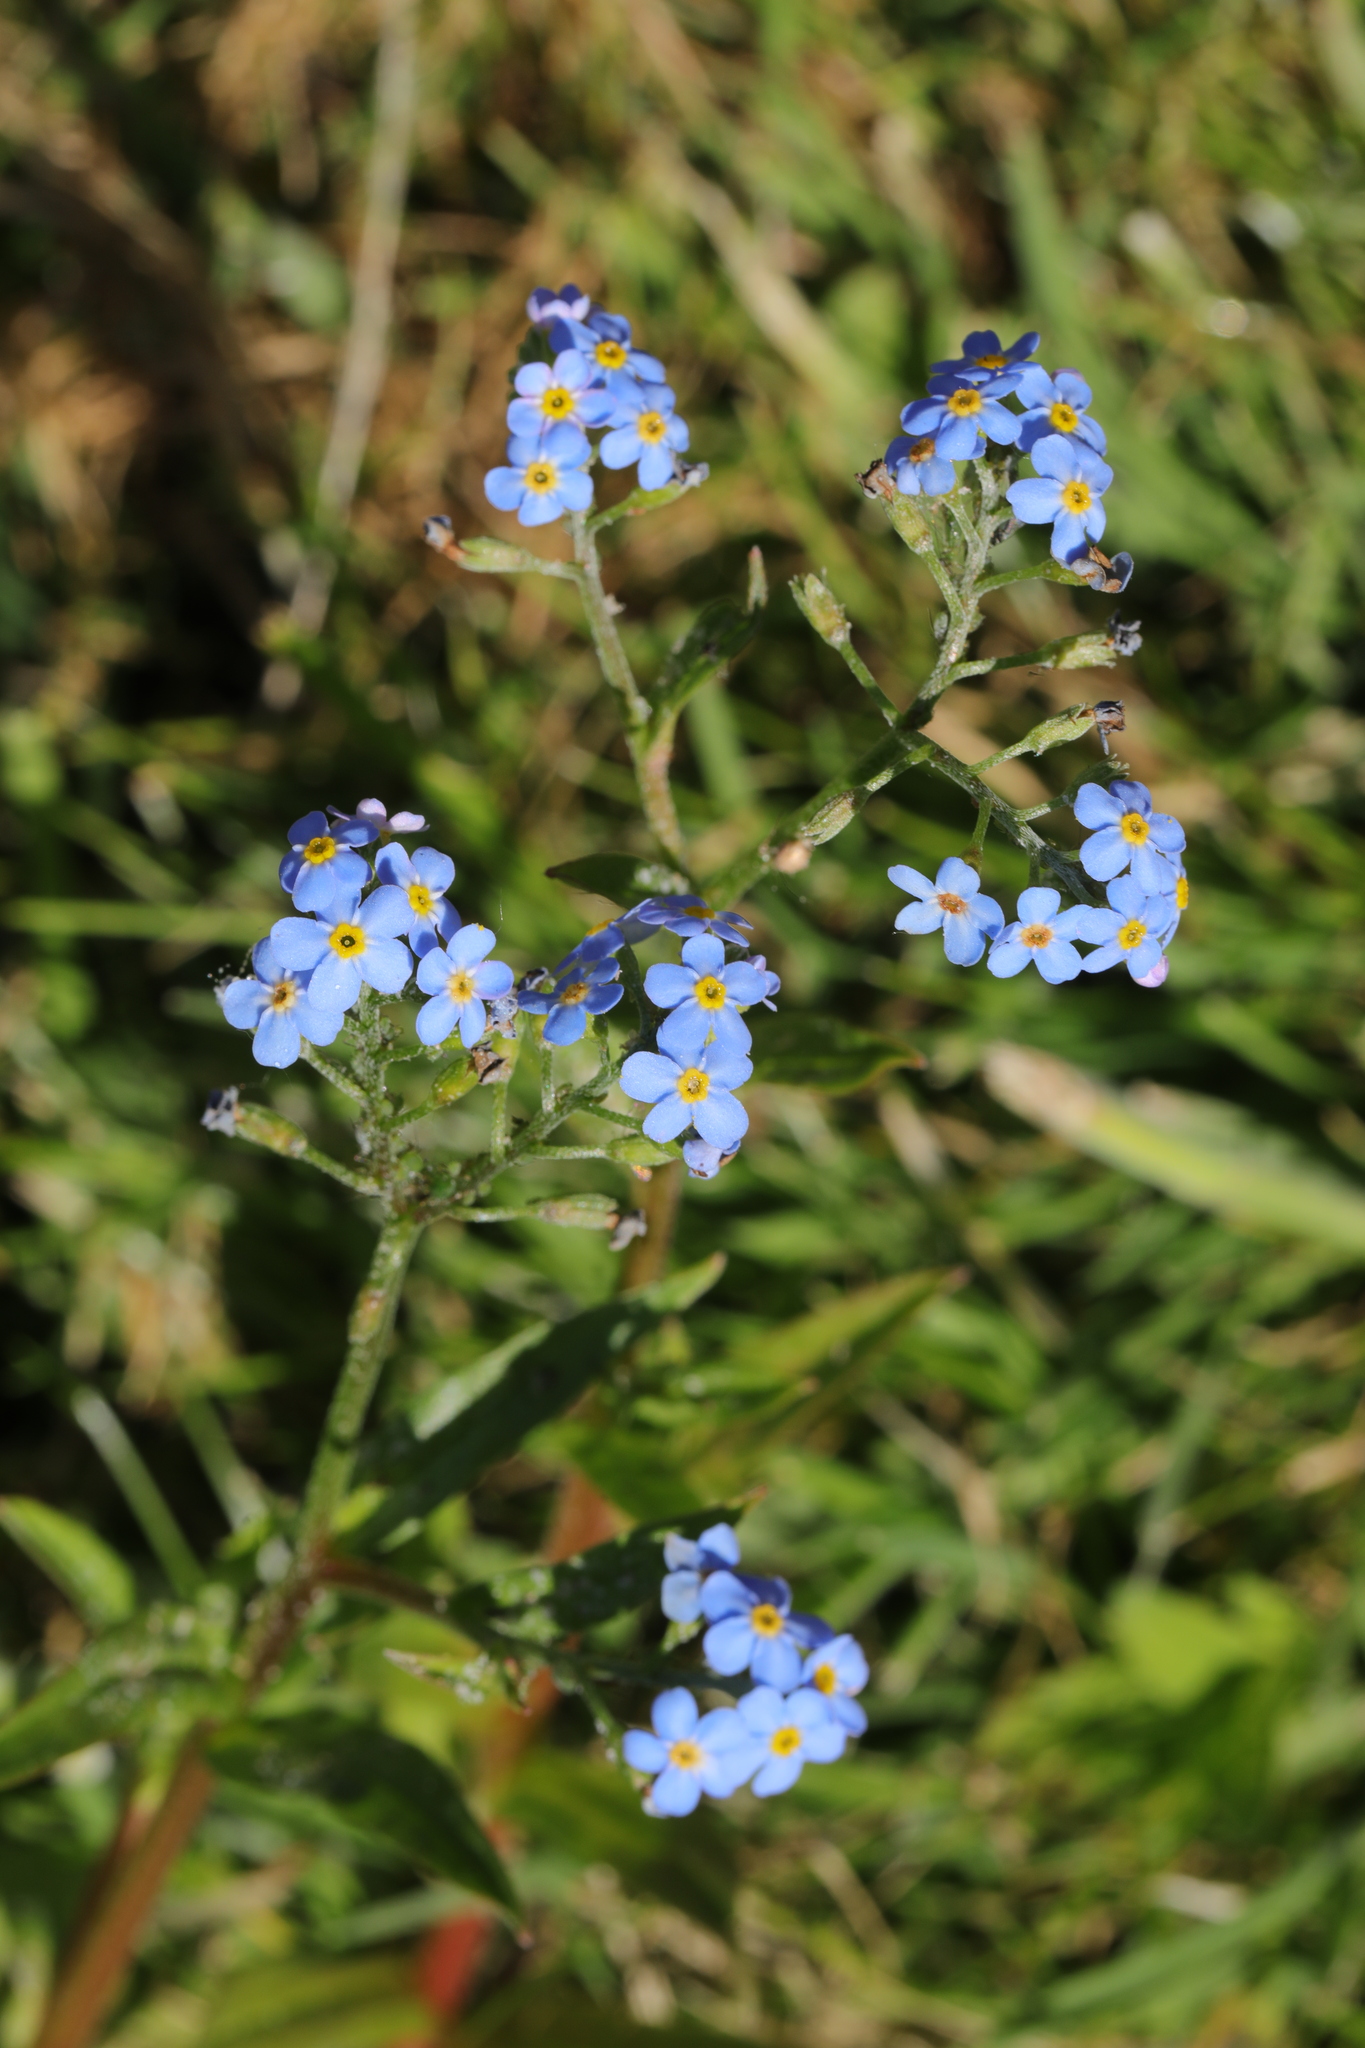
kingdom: Plantae
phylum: Tracheophyta
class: Magnoliopsida
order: Boraginales
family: Boraginaceae
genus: Myosotis
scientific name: Myosotis scorpioides
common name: Water forget-me-not
